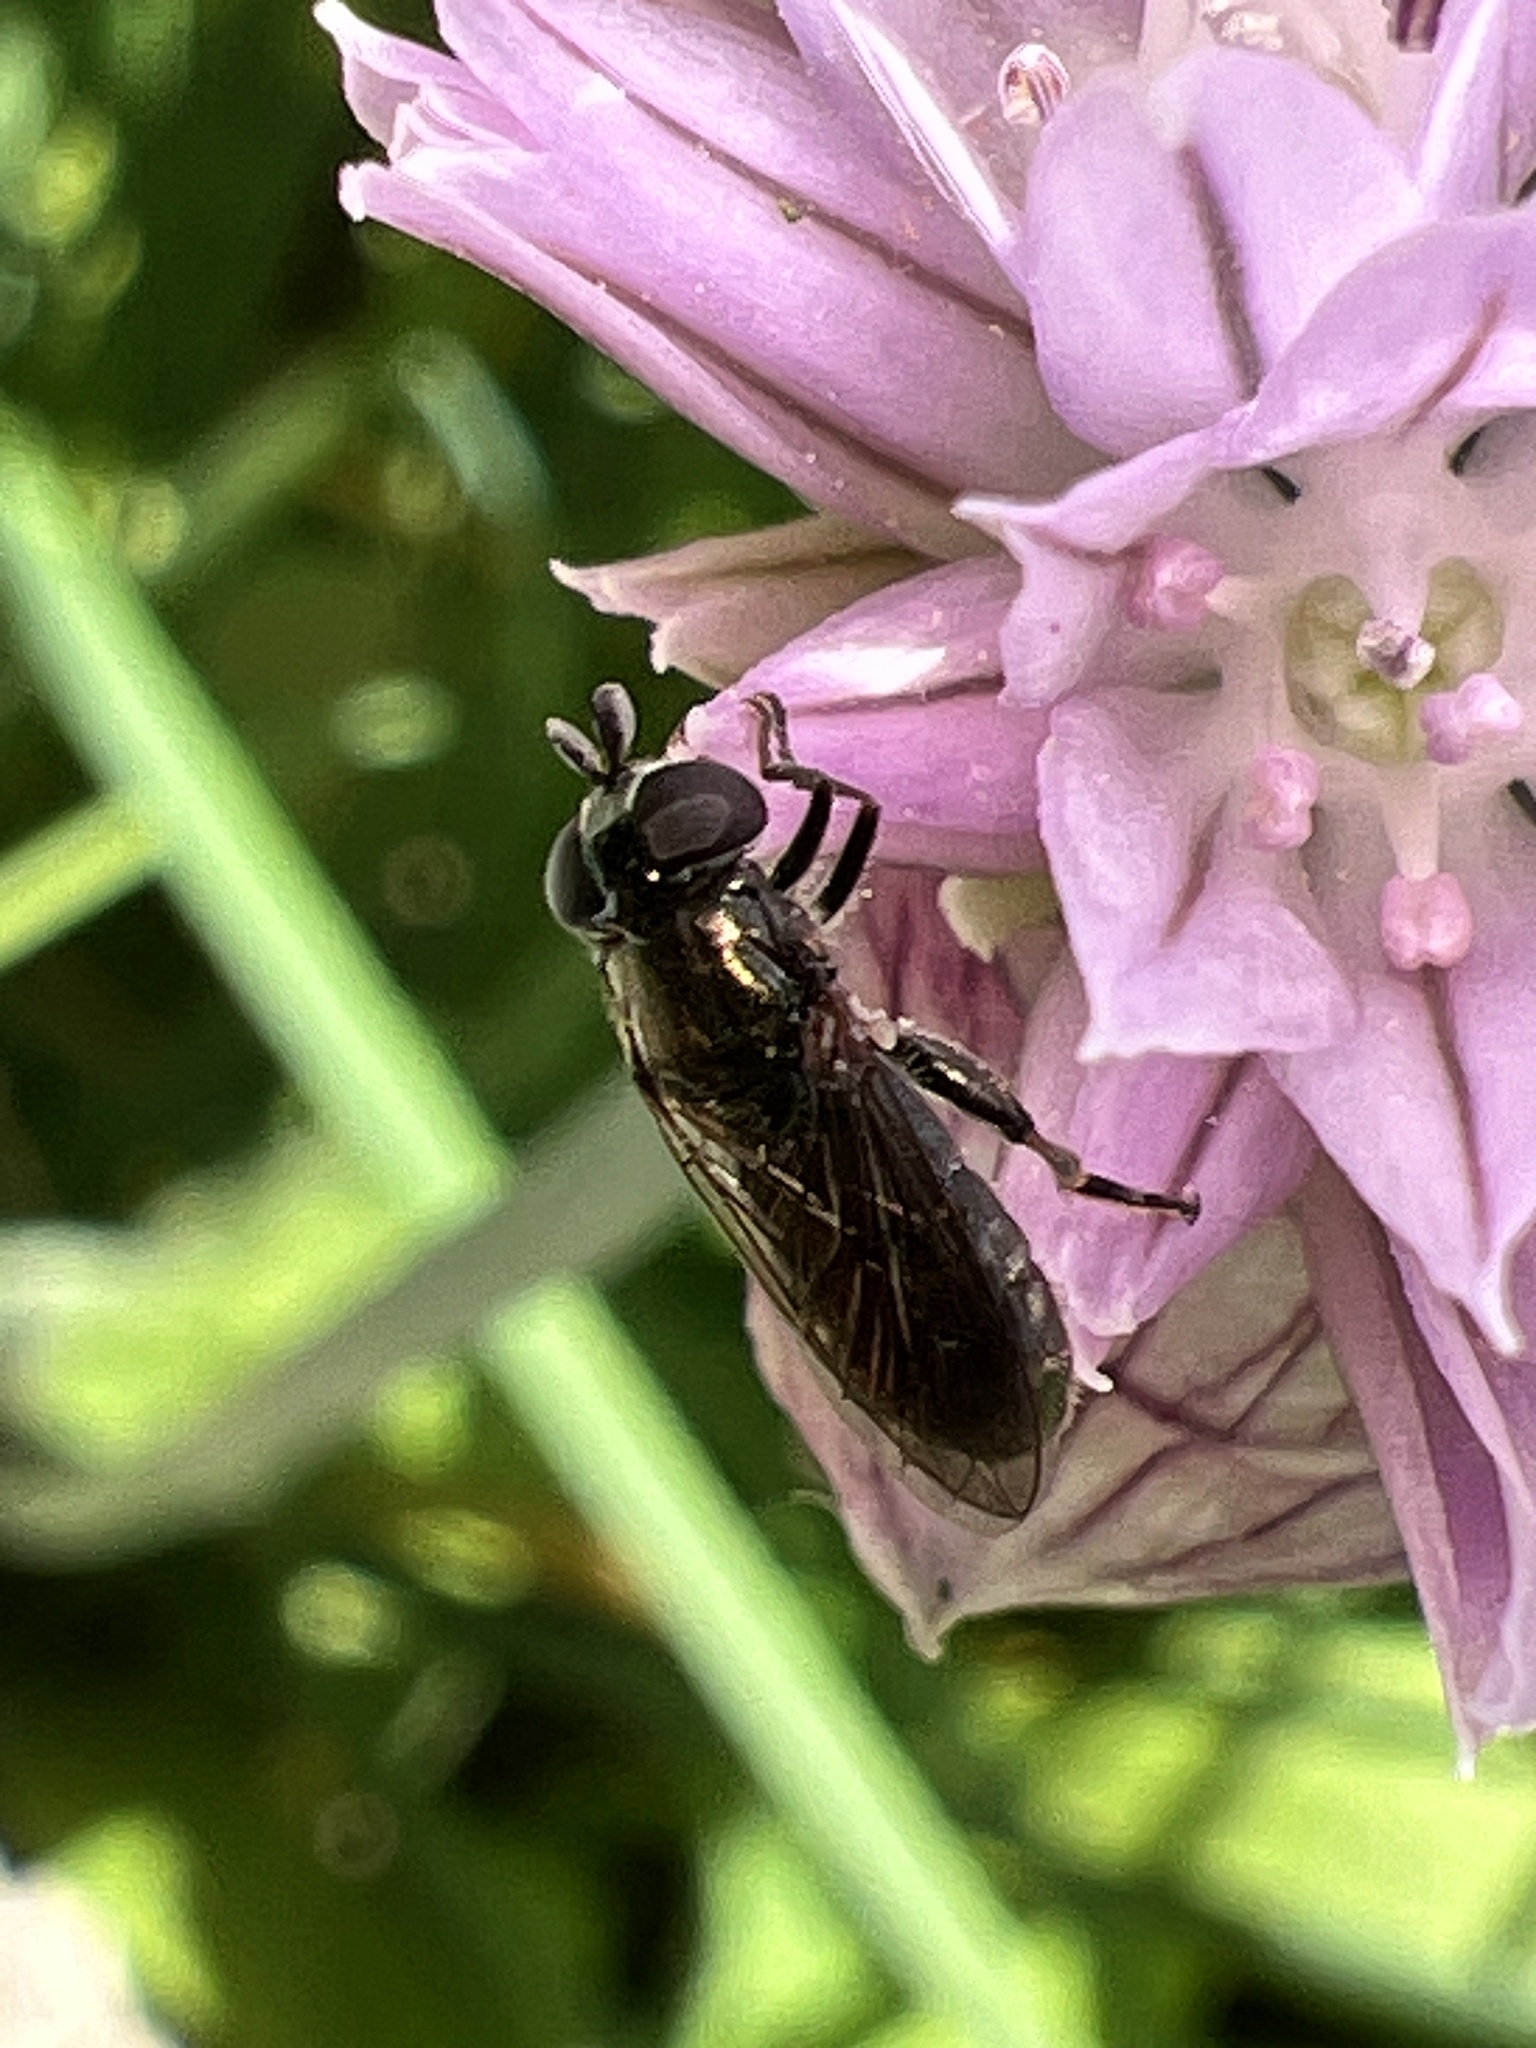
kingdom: Animalia
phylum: Arthropoda
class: Insecta
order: Diptera
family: Syrphidae
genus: Eumerus
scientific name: Eumerus
